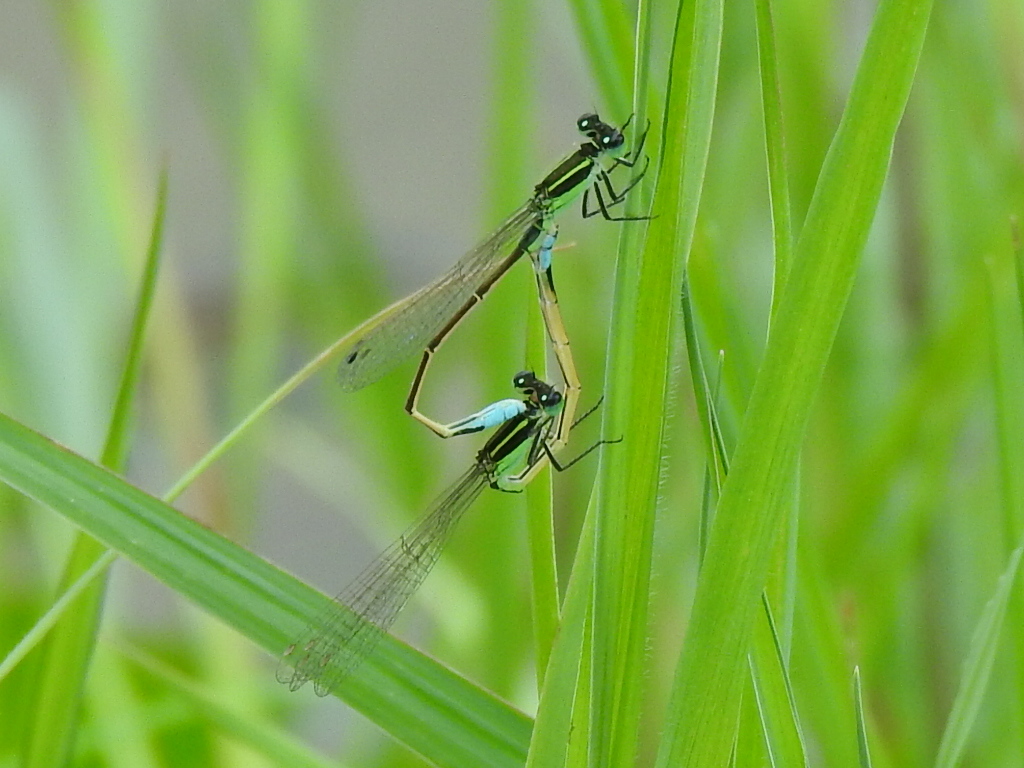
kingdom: Animalia
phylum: Arthropoda
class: Insecta
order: Odonata
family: Coenagrionidae
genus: Ischnura
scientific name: Ischnura ramburii
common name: Rambur's forktail
